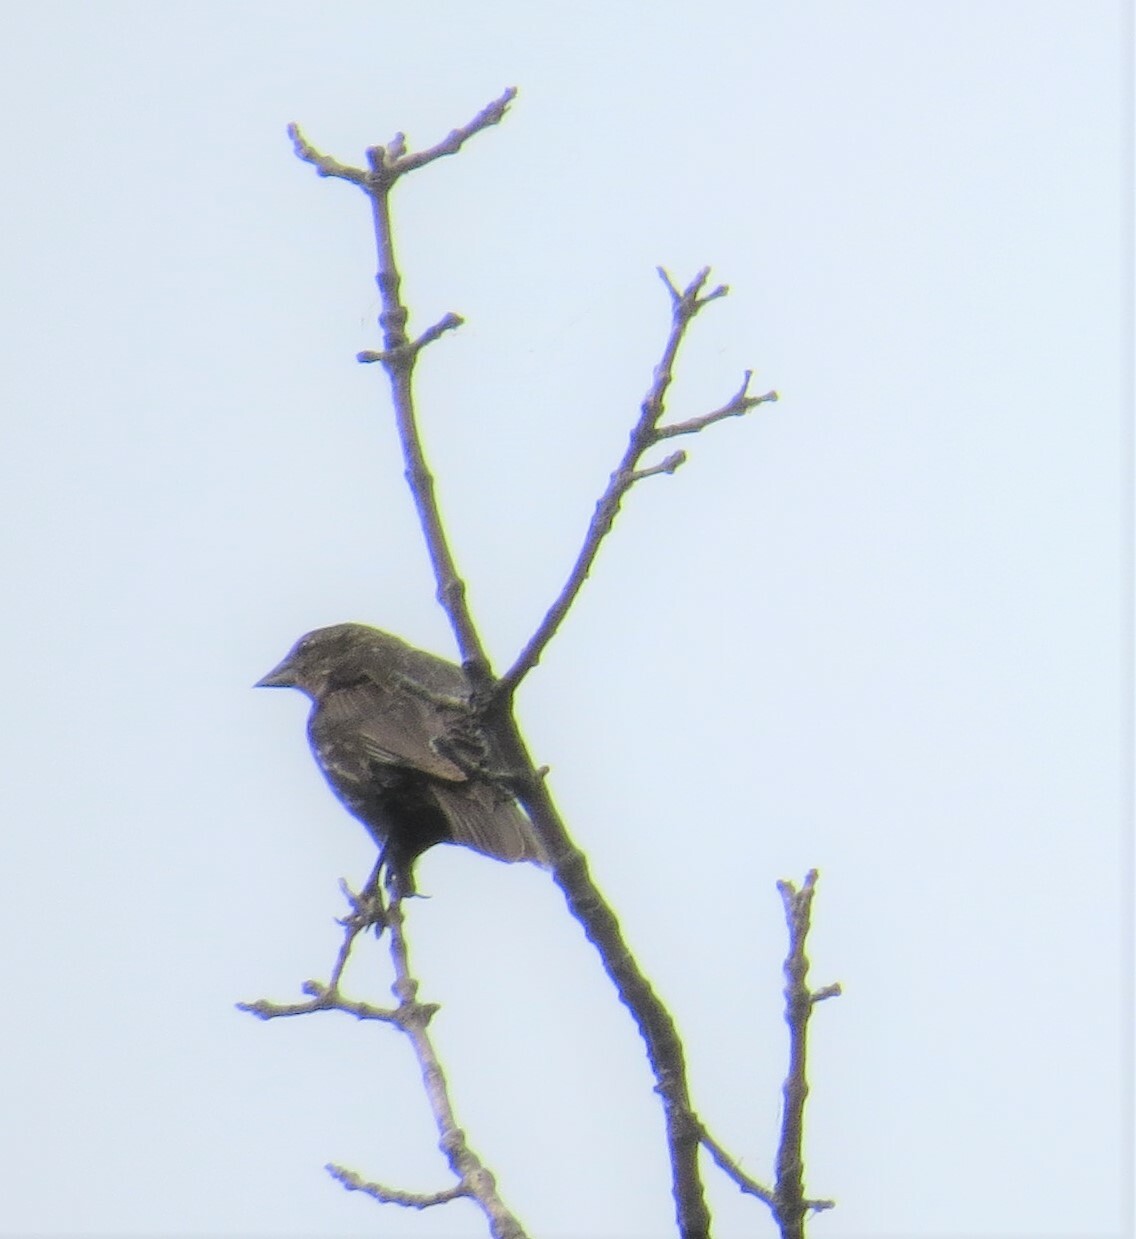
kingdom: Animalia
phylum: Chordata
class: Aves
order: Passeriformes
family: Icteridae
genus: Agelaius
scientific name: Agelaius phoeniceus
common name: Red-winged blackbird
